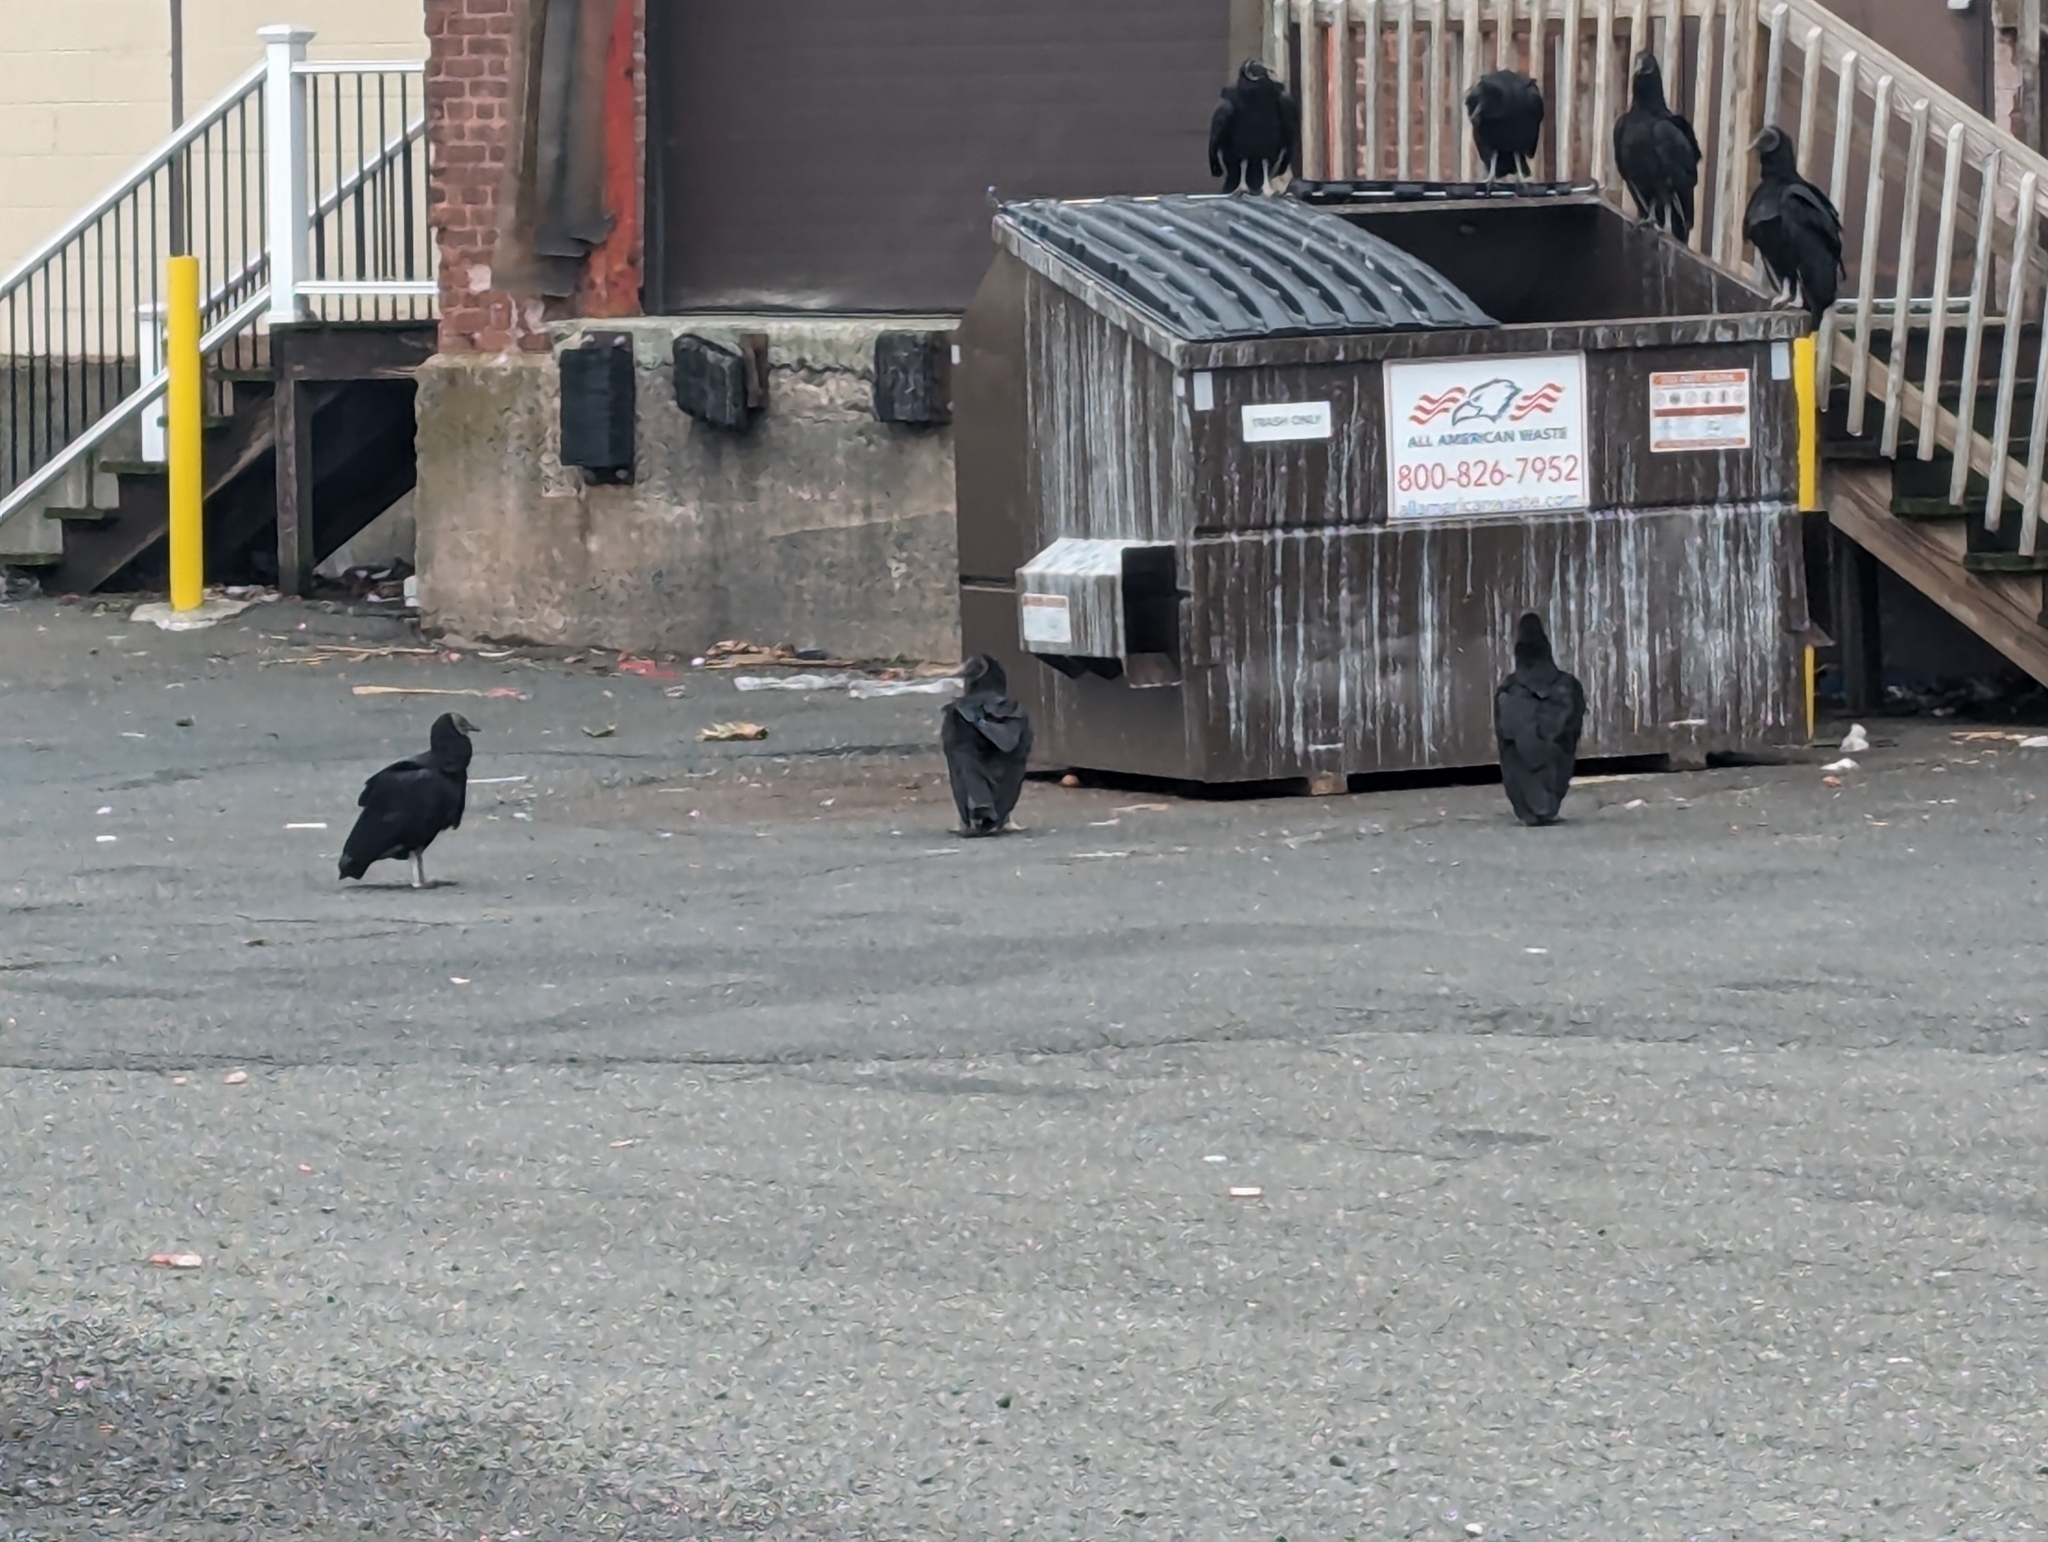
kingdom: Animalia
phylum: Chordata
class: Aves
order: Accipitriformes
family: Cathartidae
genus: Coragyps
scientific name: Coragyps atratus
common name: Black vulture
